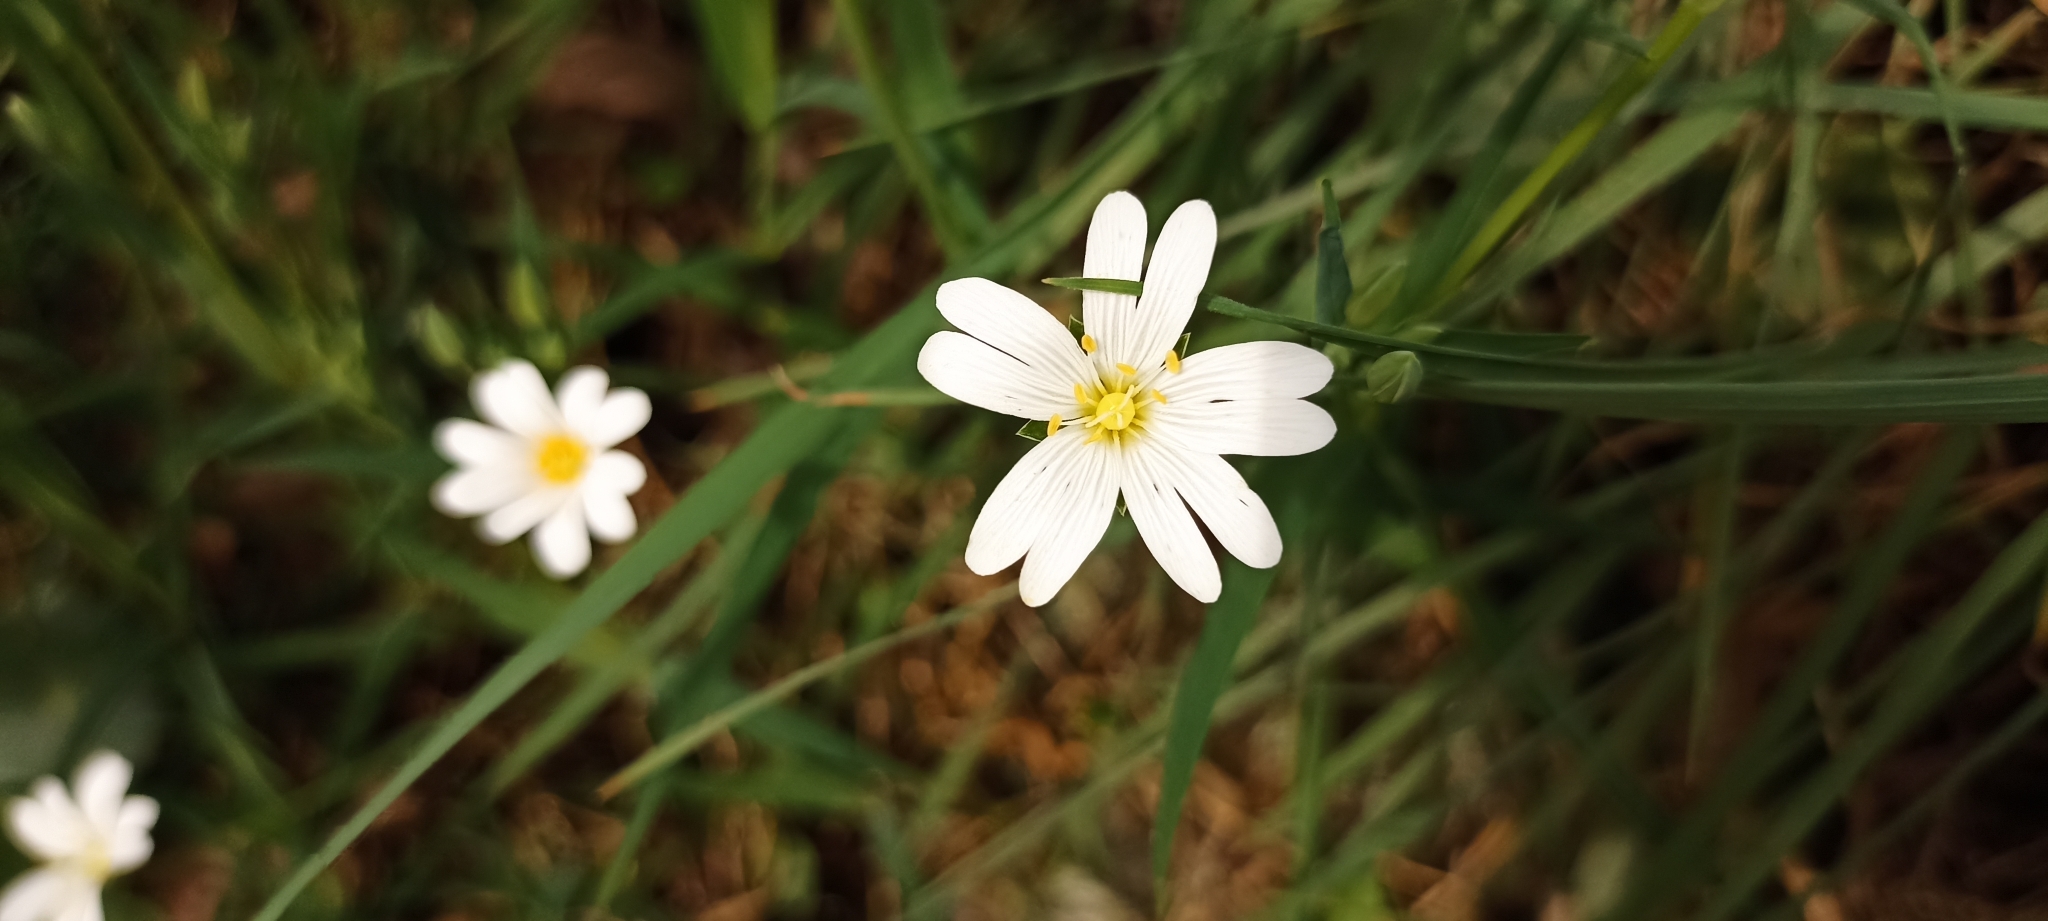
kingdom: Plantae
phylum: Tracheophyta
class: Magnoliopsida
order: Caryophyllales
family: Caryophyllaceae
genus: Rabelera
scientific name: Rabelera holostea
